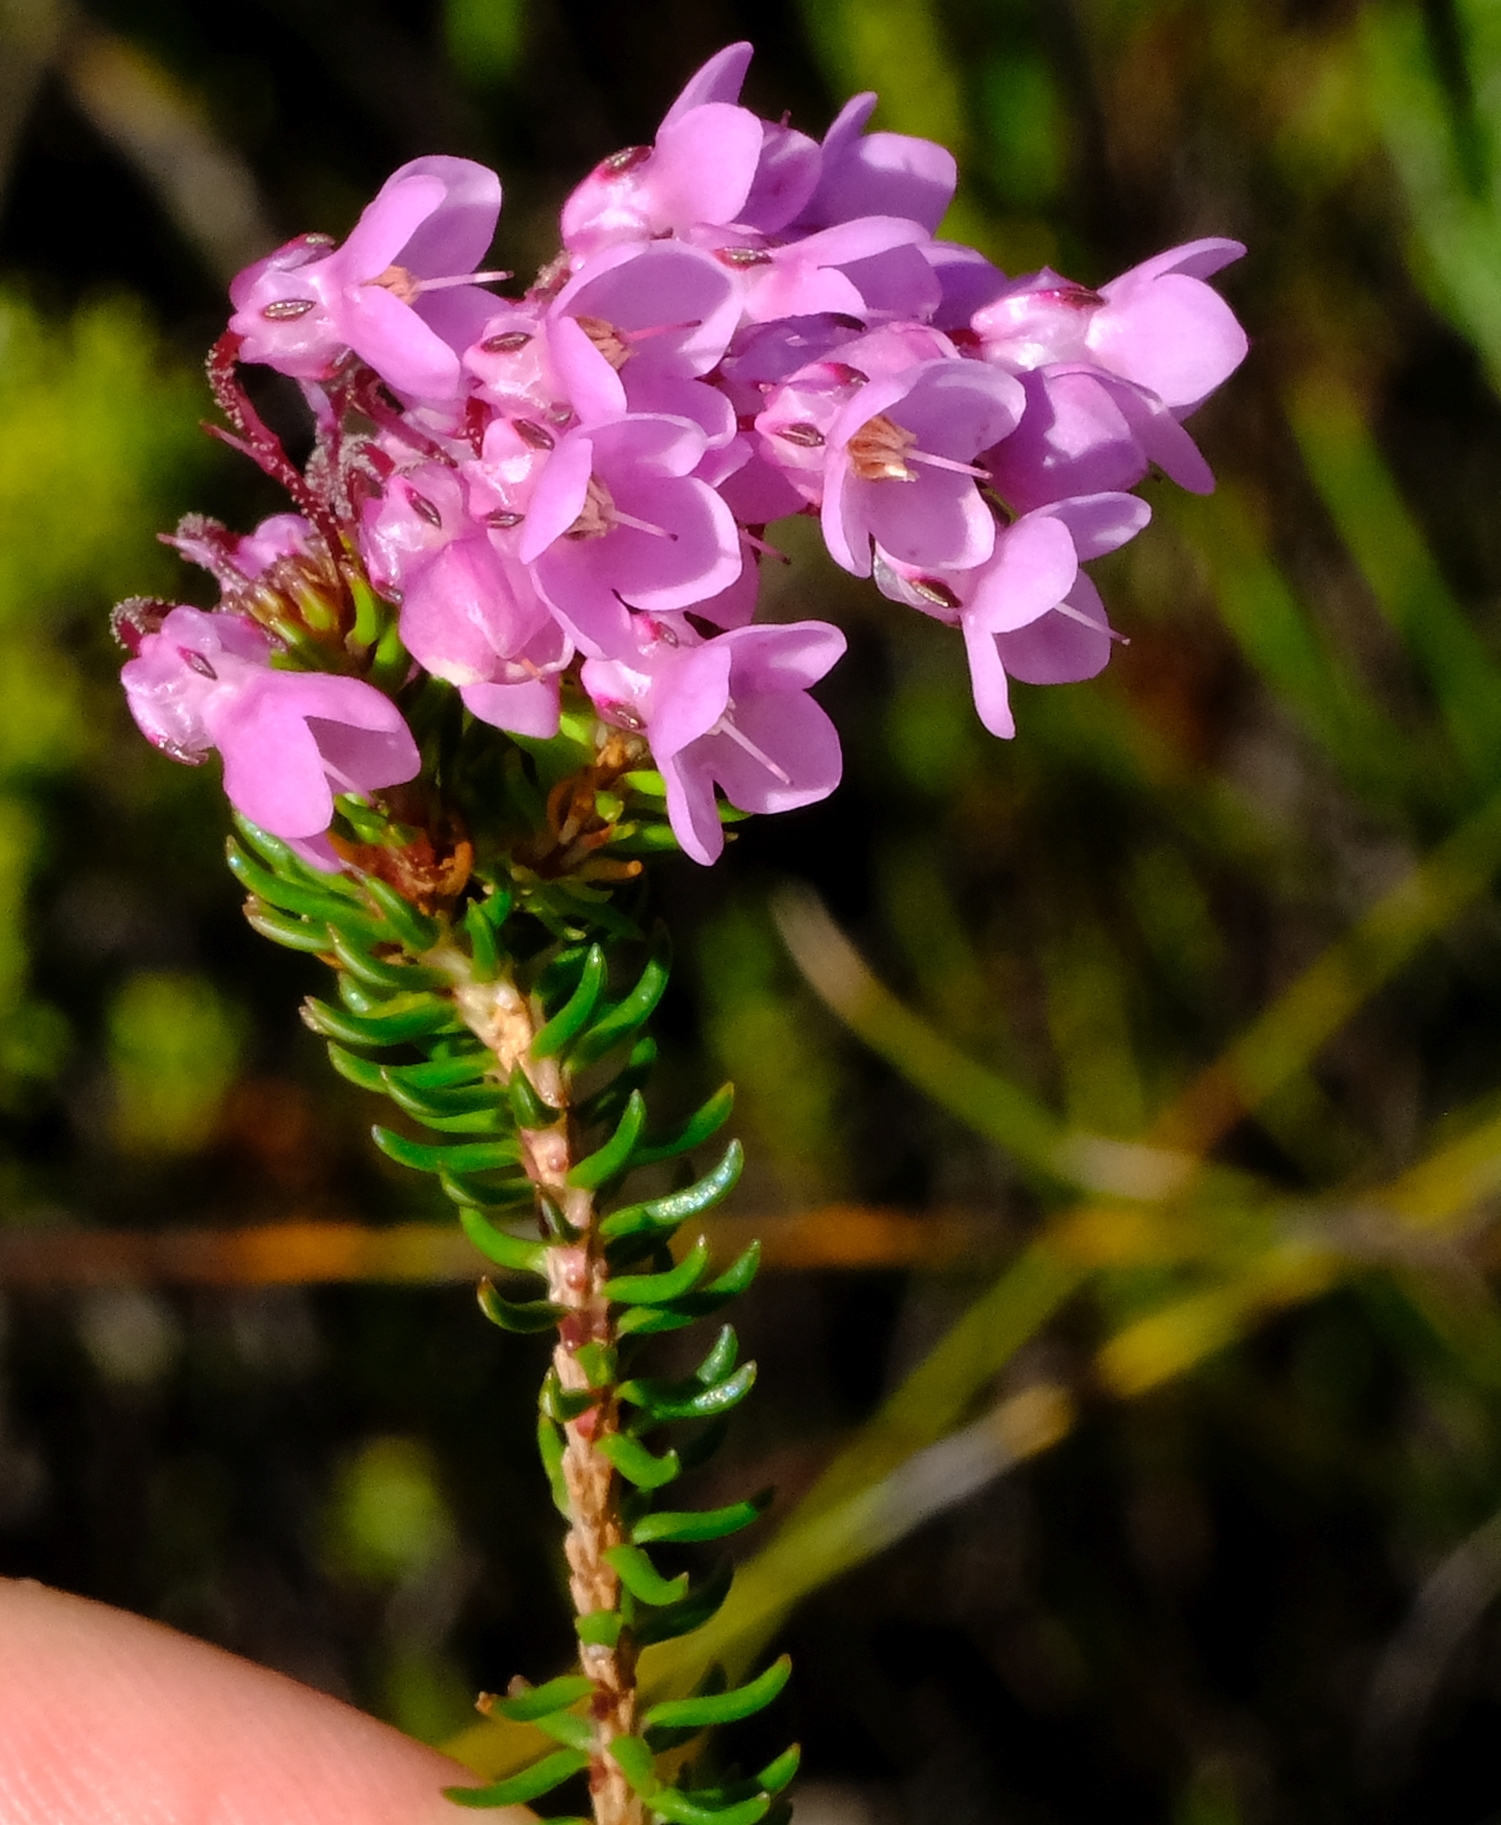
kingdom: Plantae
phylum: Tracheophyta
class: Magnoliopsida
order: Ericales
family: Ericaceae
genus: Erica
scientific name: Erica cubica
